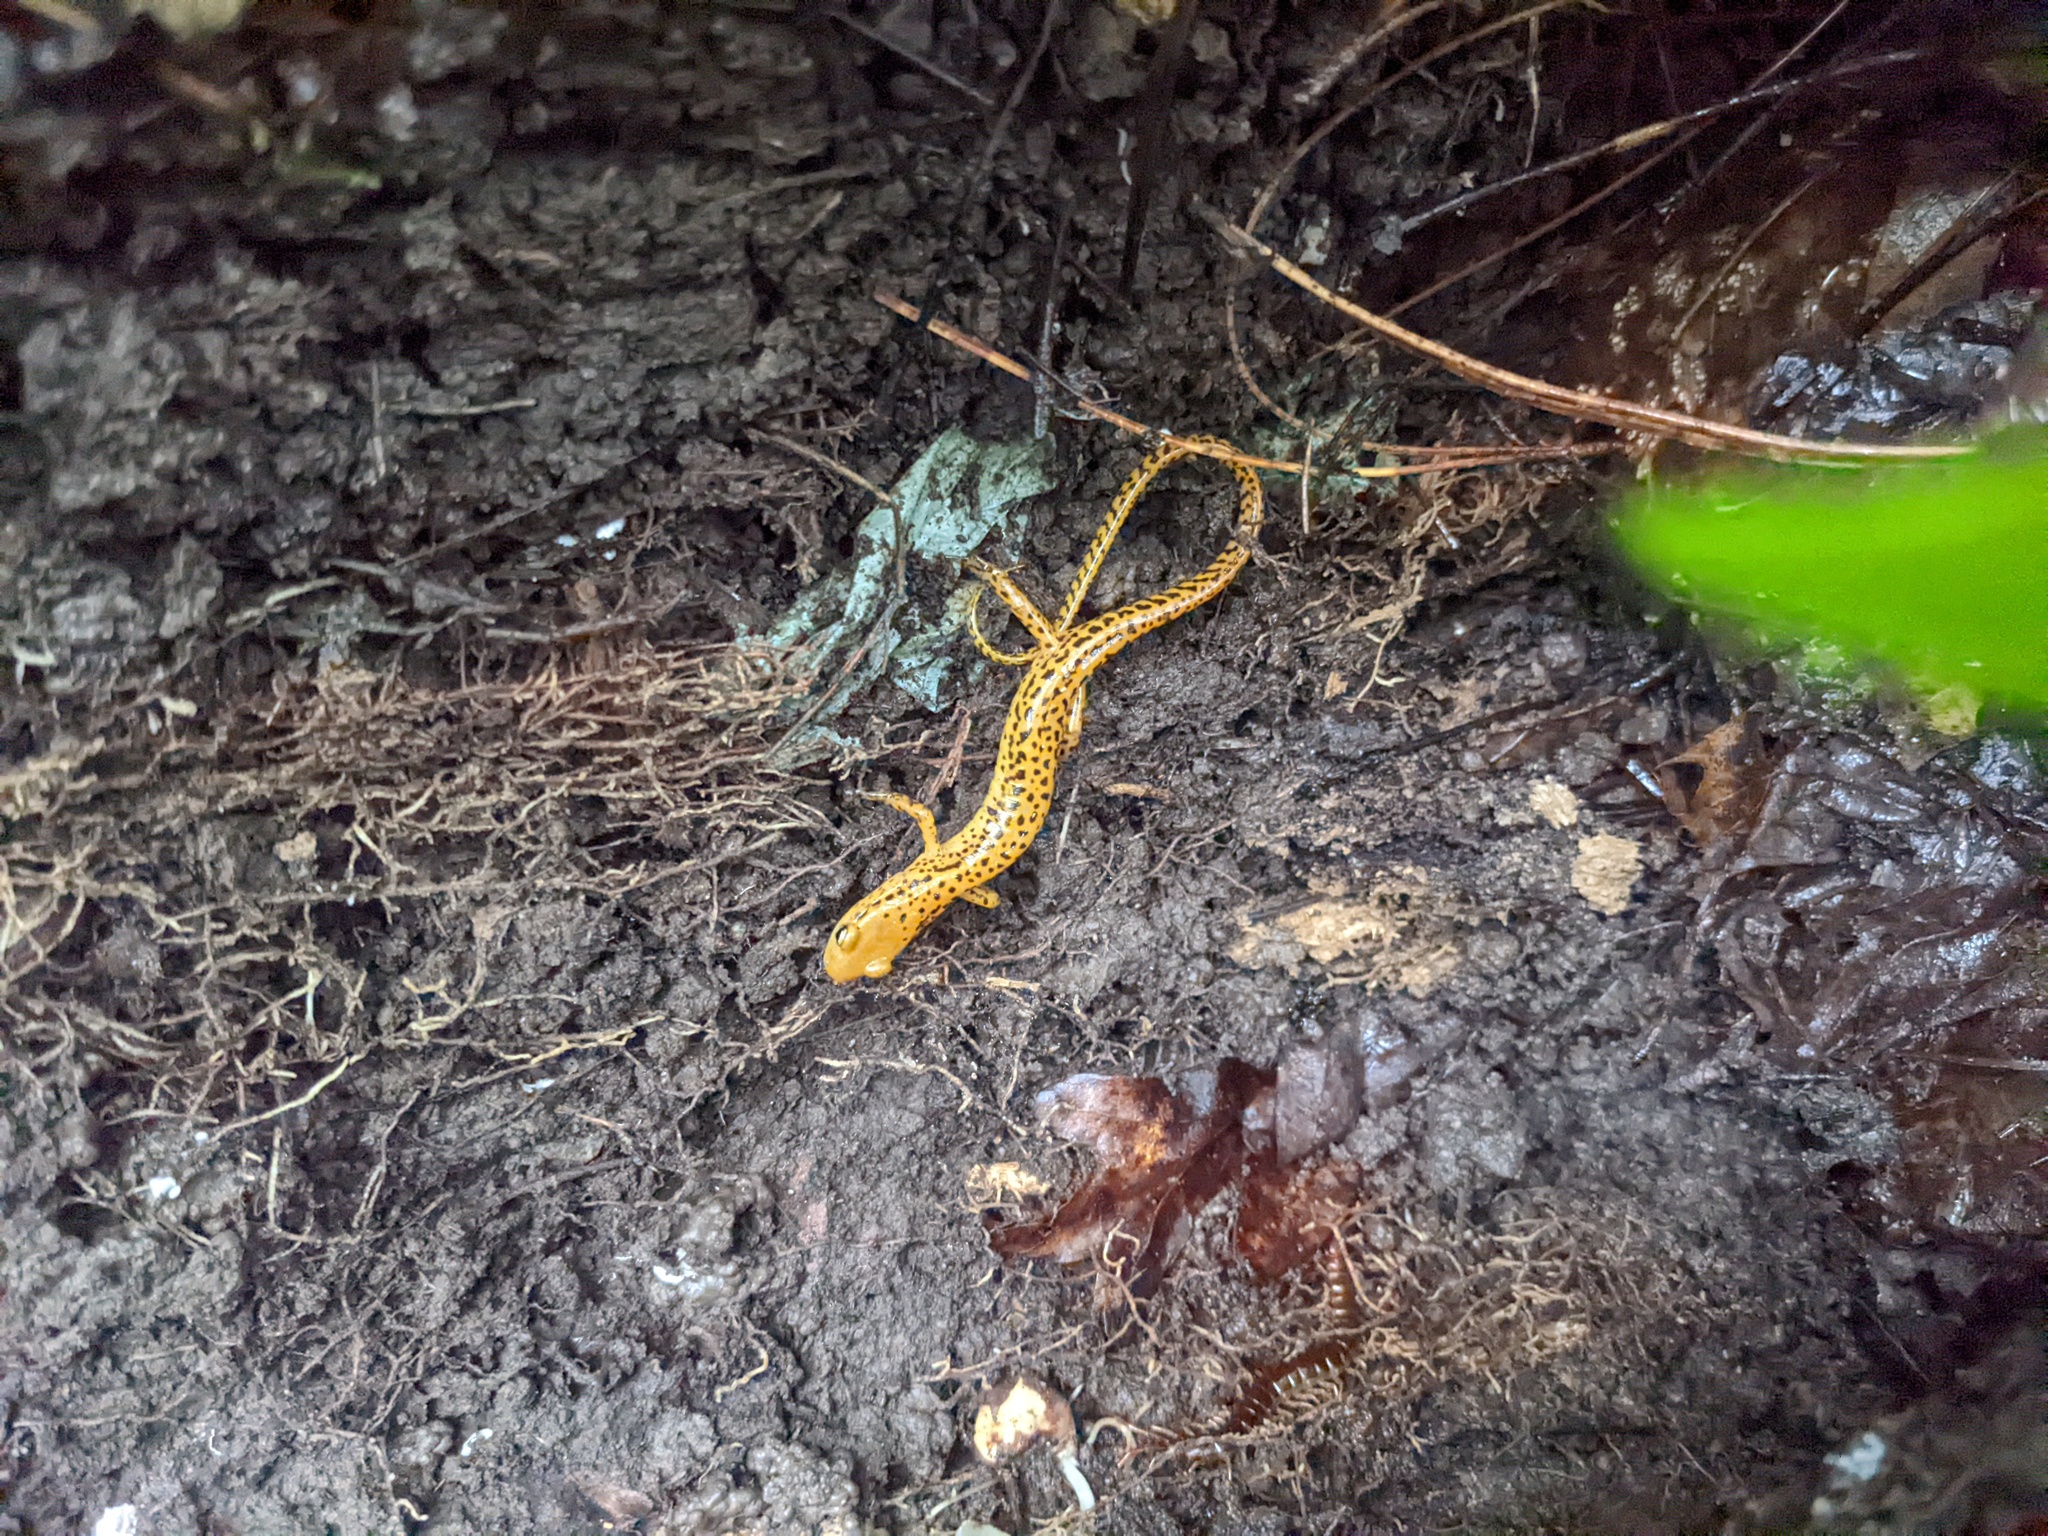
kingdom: Animalia
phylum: Chordata
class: Amphibia
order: Caudata
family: Plethodontidae
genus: Eurycea
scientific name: Eurycea longicauda
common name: Long-tailed salamander
